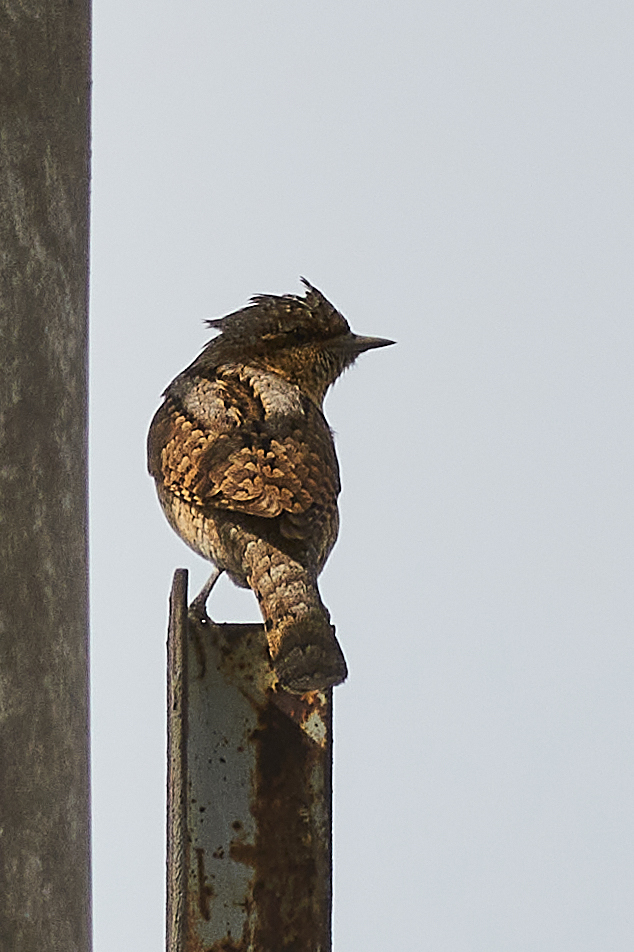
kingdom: Animalia
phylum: Chordata
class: Aves
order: Piciformes
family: Picidae
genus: Jynx
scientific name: Jynx torquilla
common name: Eurasian wryneck
